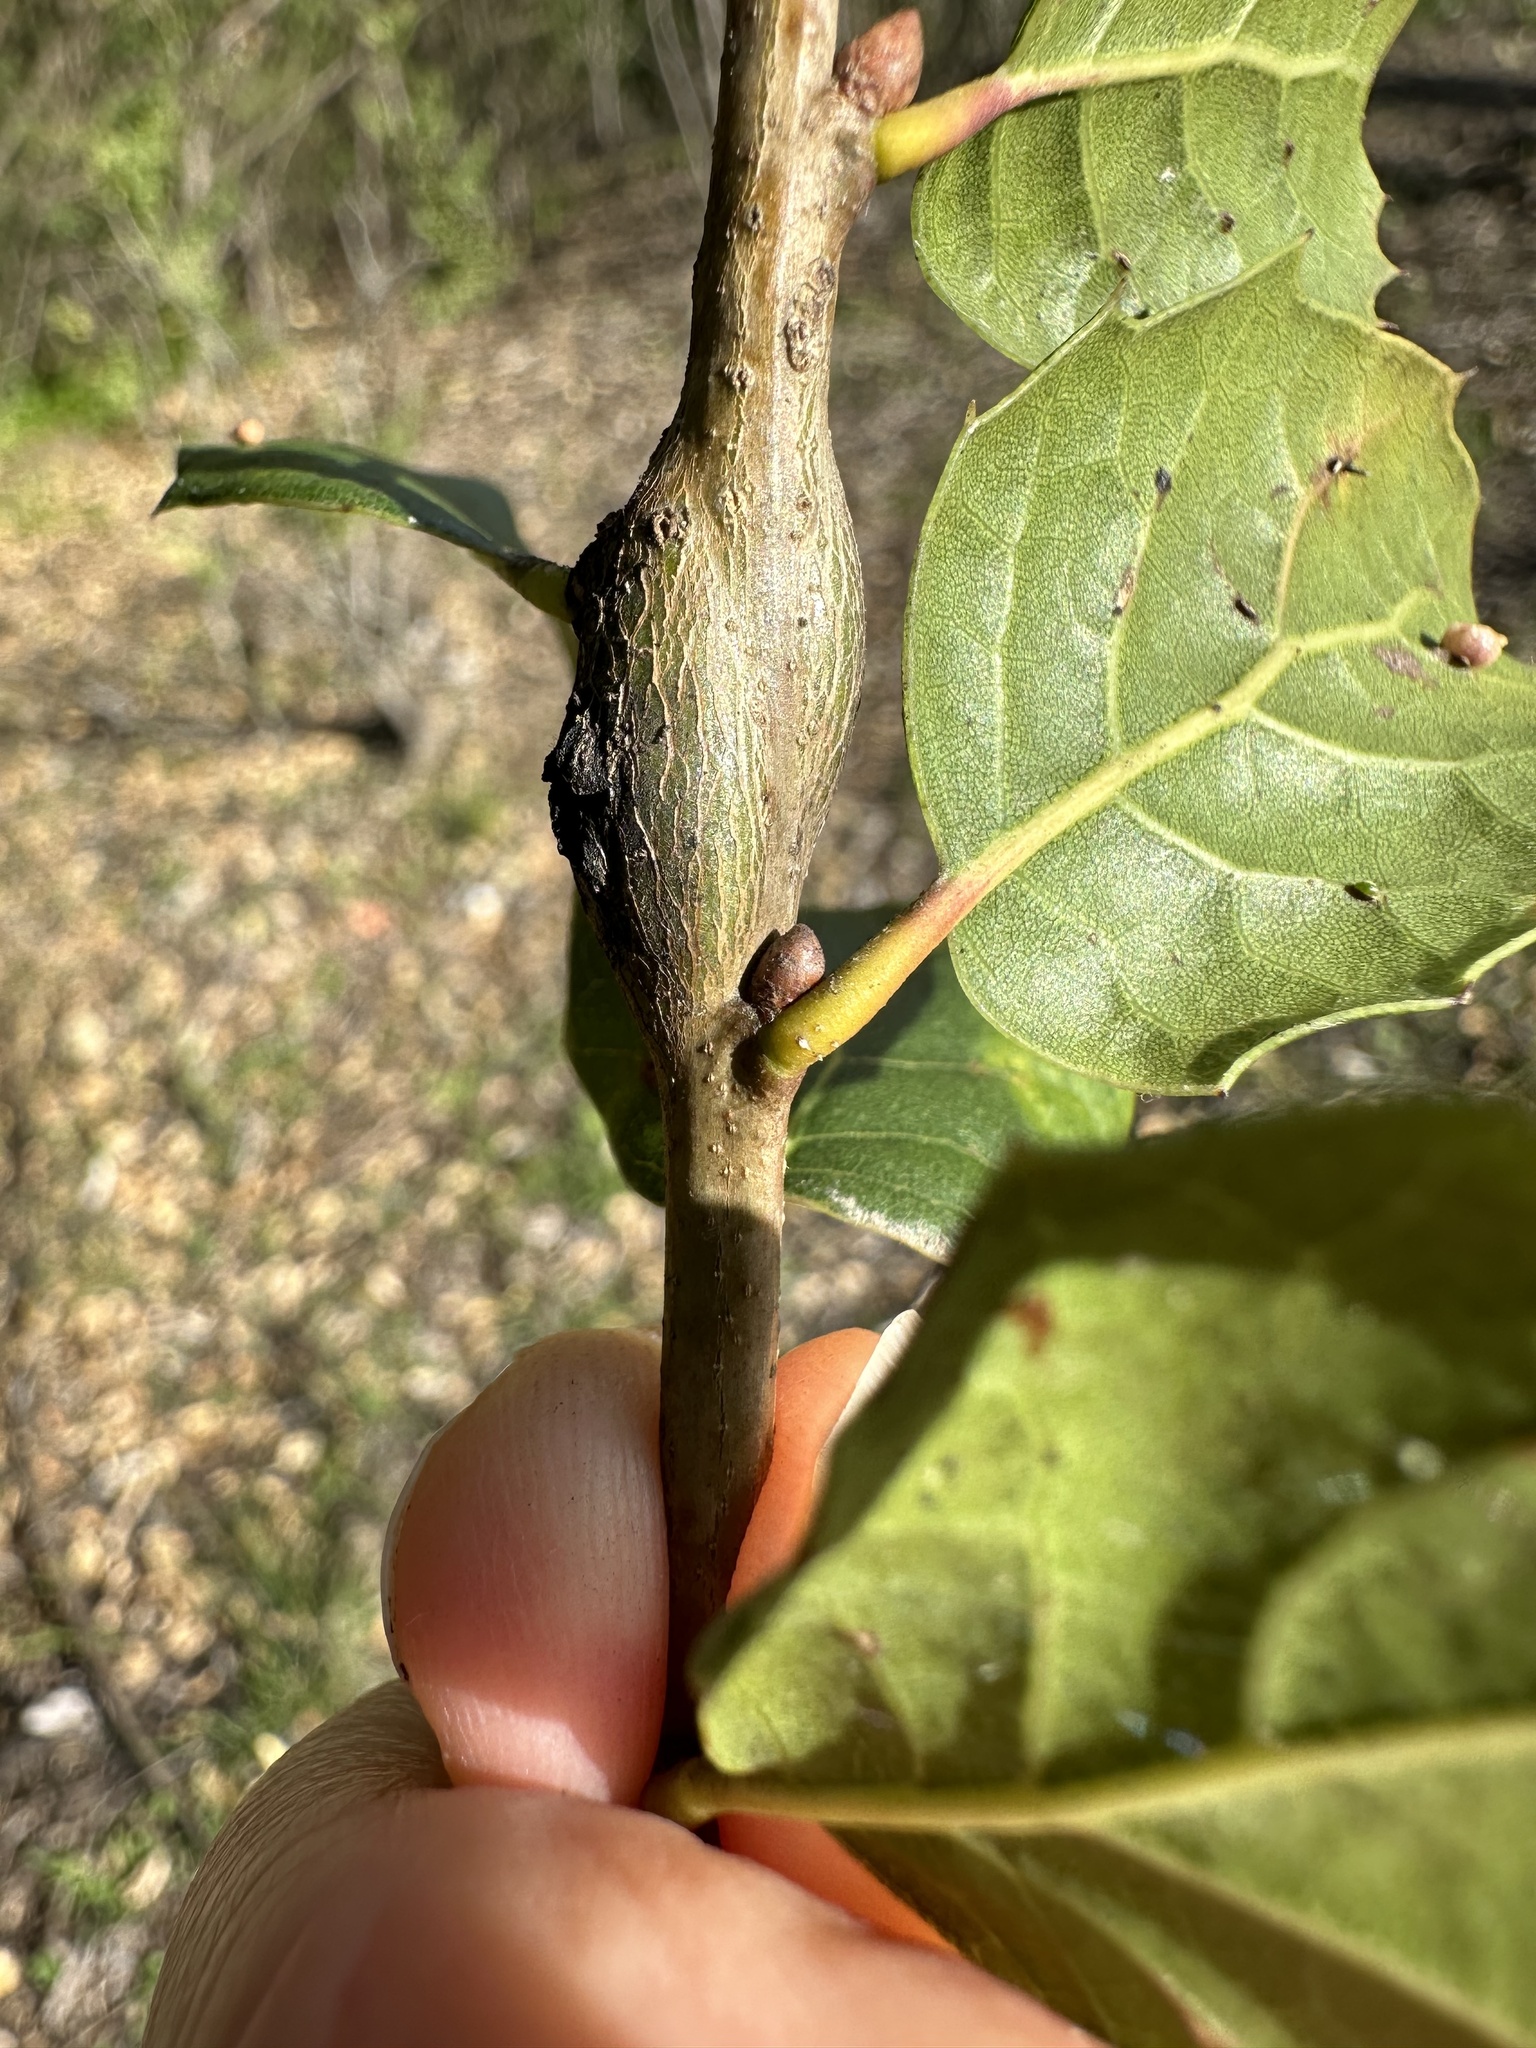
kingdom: Animalia
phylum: Arthropoda
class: Insecta
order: Hymenoptera
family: Cynipidae
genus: Callirhytis
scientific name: Callirhytis
